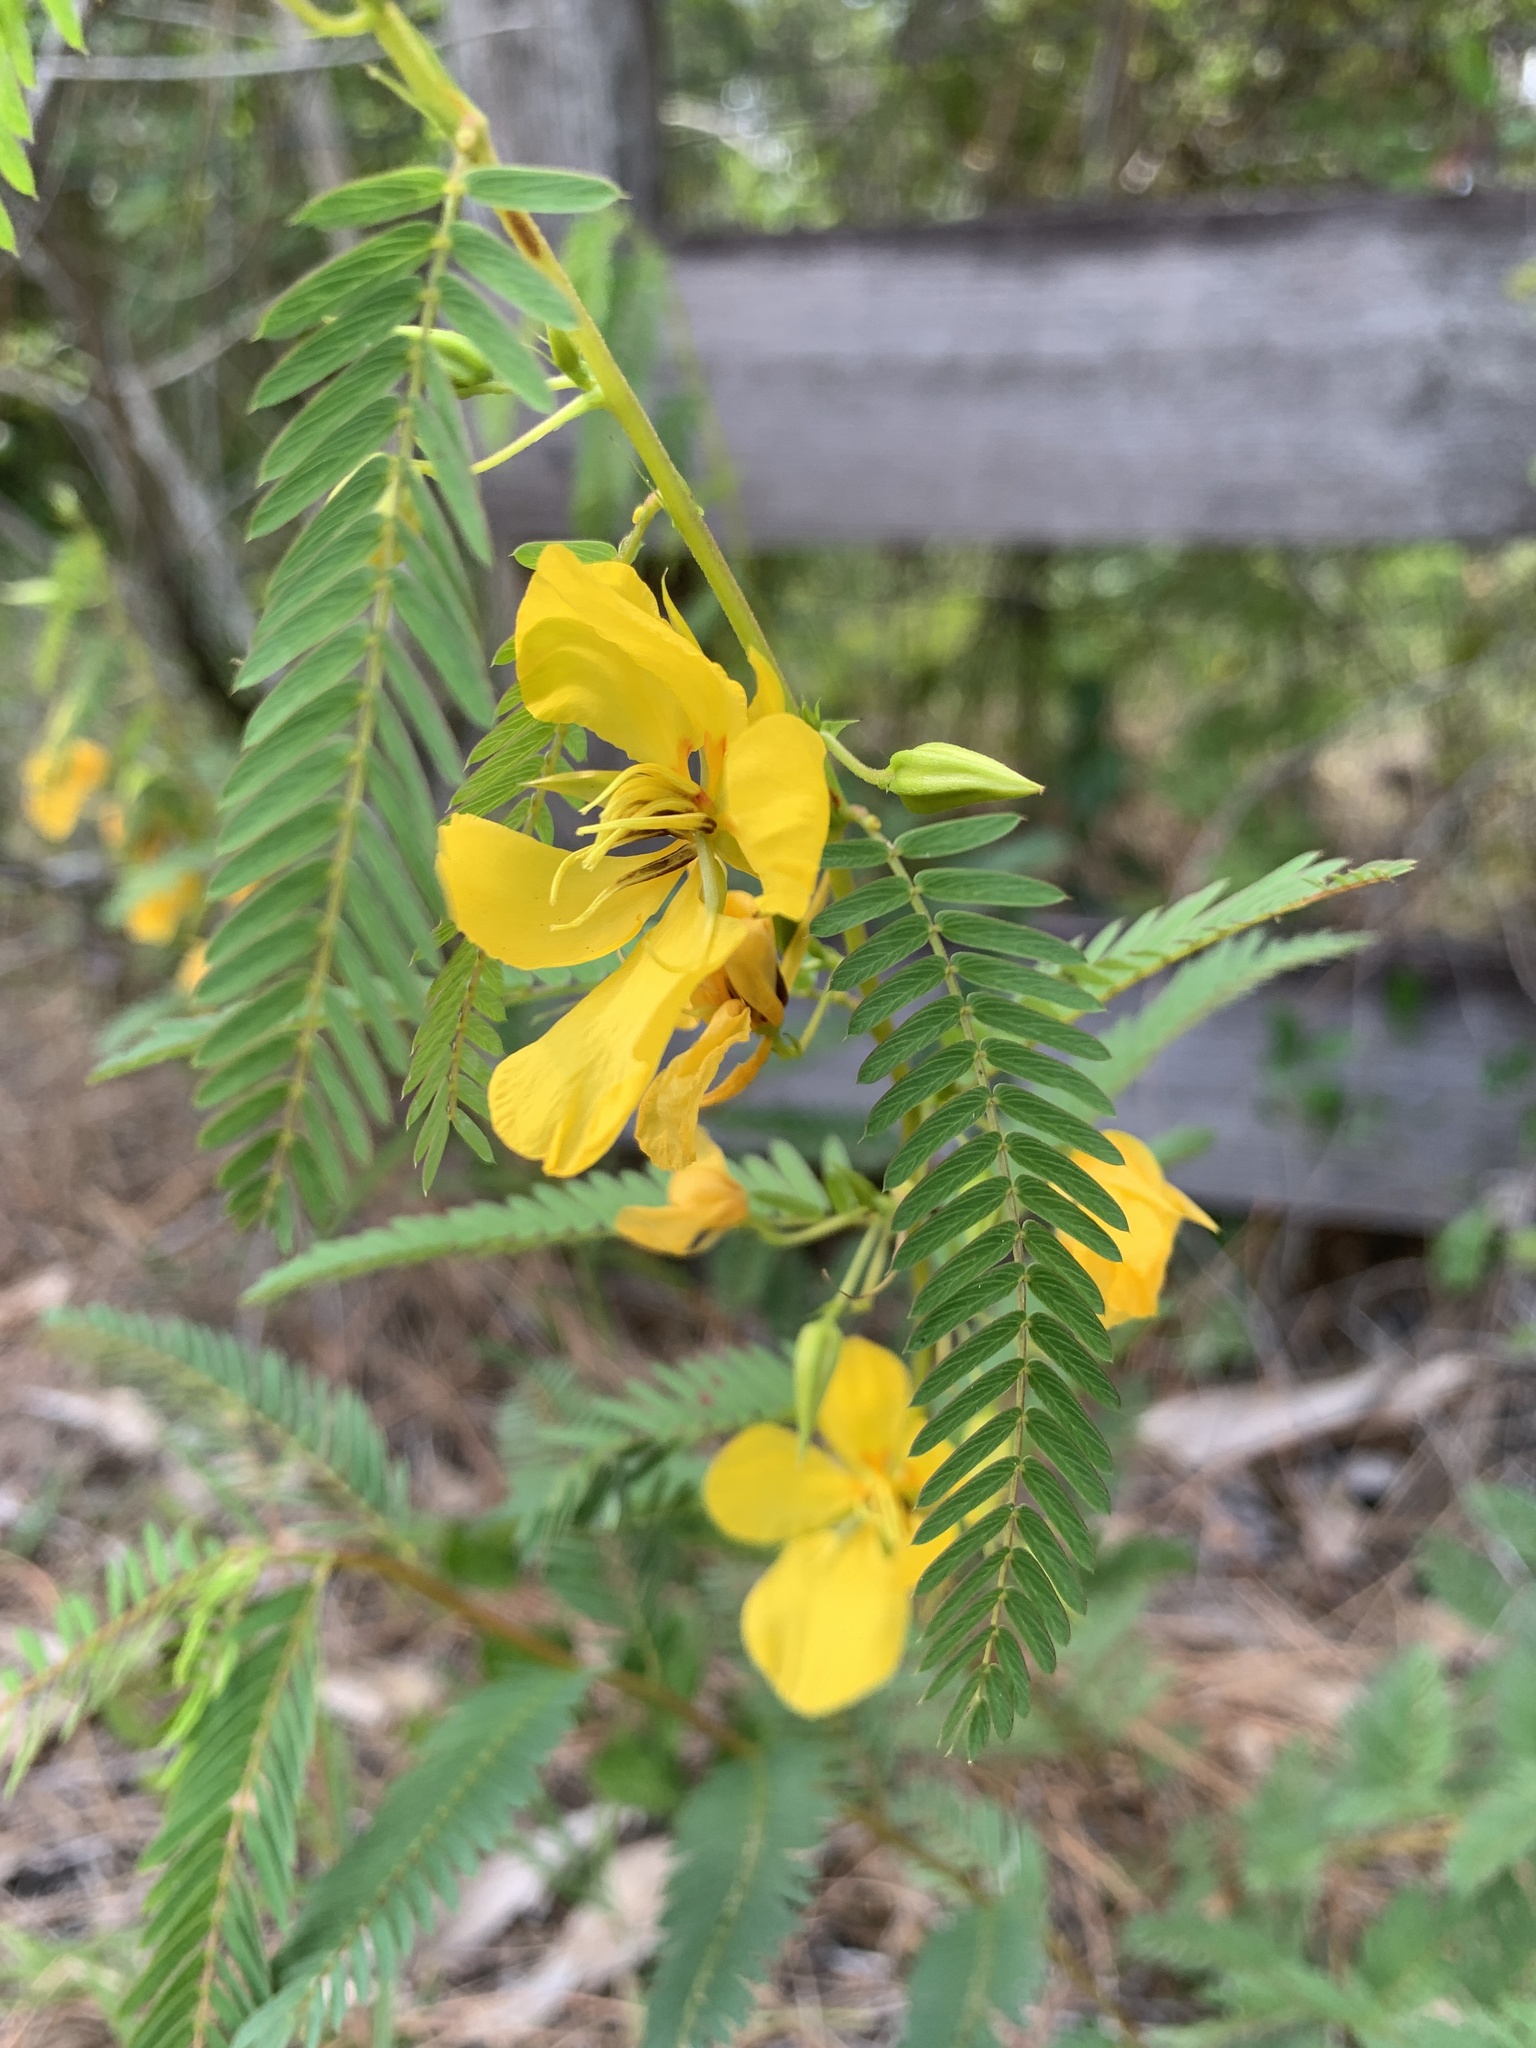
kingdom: Plantae
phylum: Tracheophyta
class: Magnoliopsida
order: Fabales
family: Fabaceae
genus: Chamaecrista
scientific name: Chamaecrista fasciculata
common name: Golden cassia
